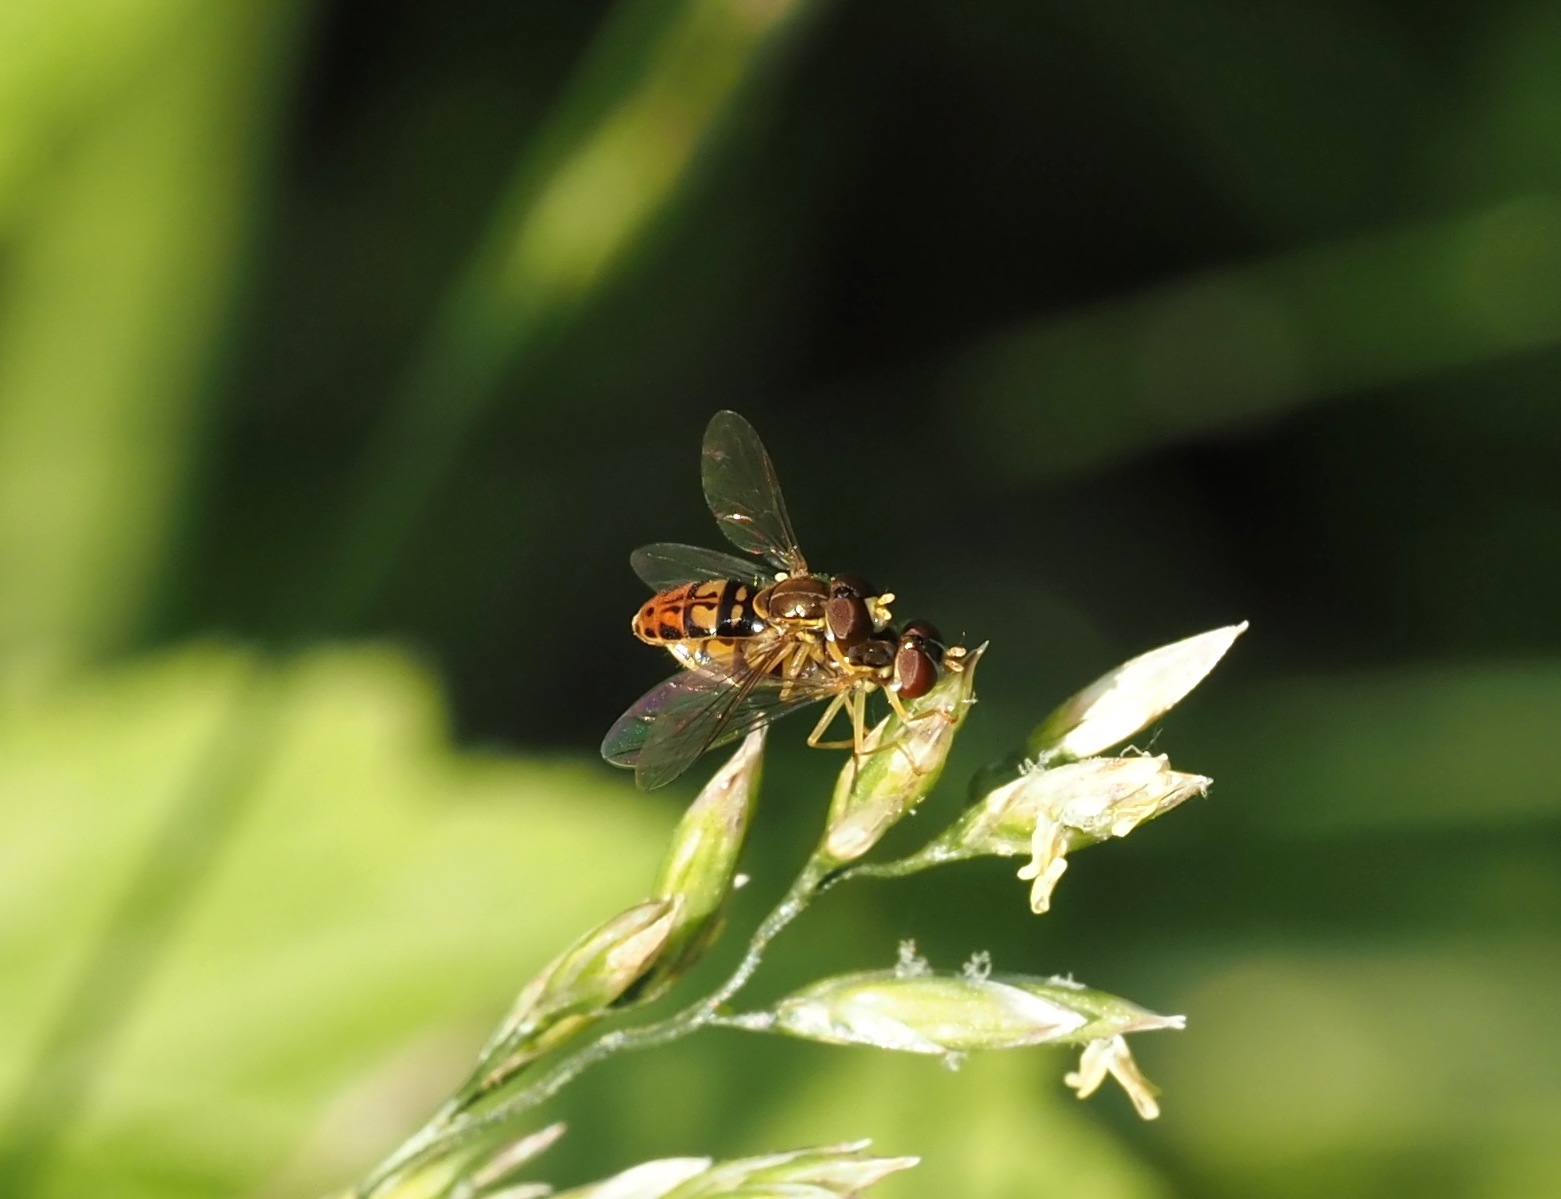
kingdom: Animalia
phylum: Arthropoda
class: Insecta
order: Diptera
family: Syrphidae
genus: Toxomerus
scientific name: Toxomerus marginatus
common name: Syrphid fly
